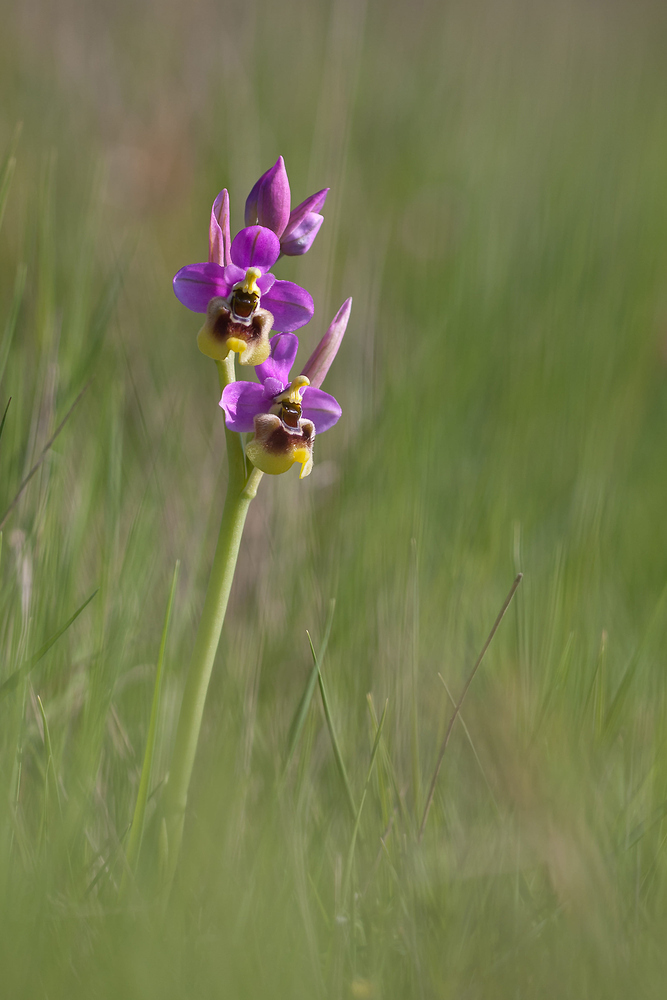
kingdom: Plantae
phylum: Tracheophyta
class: Liliopsida
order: Asparagales
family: Orchidaceae
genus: Ophrys
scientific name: Ophrys tenthredinifera
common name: Sawfly orchid
